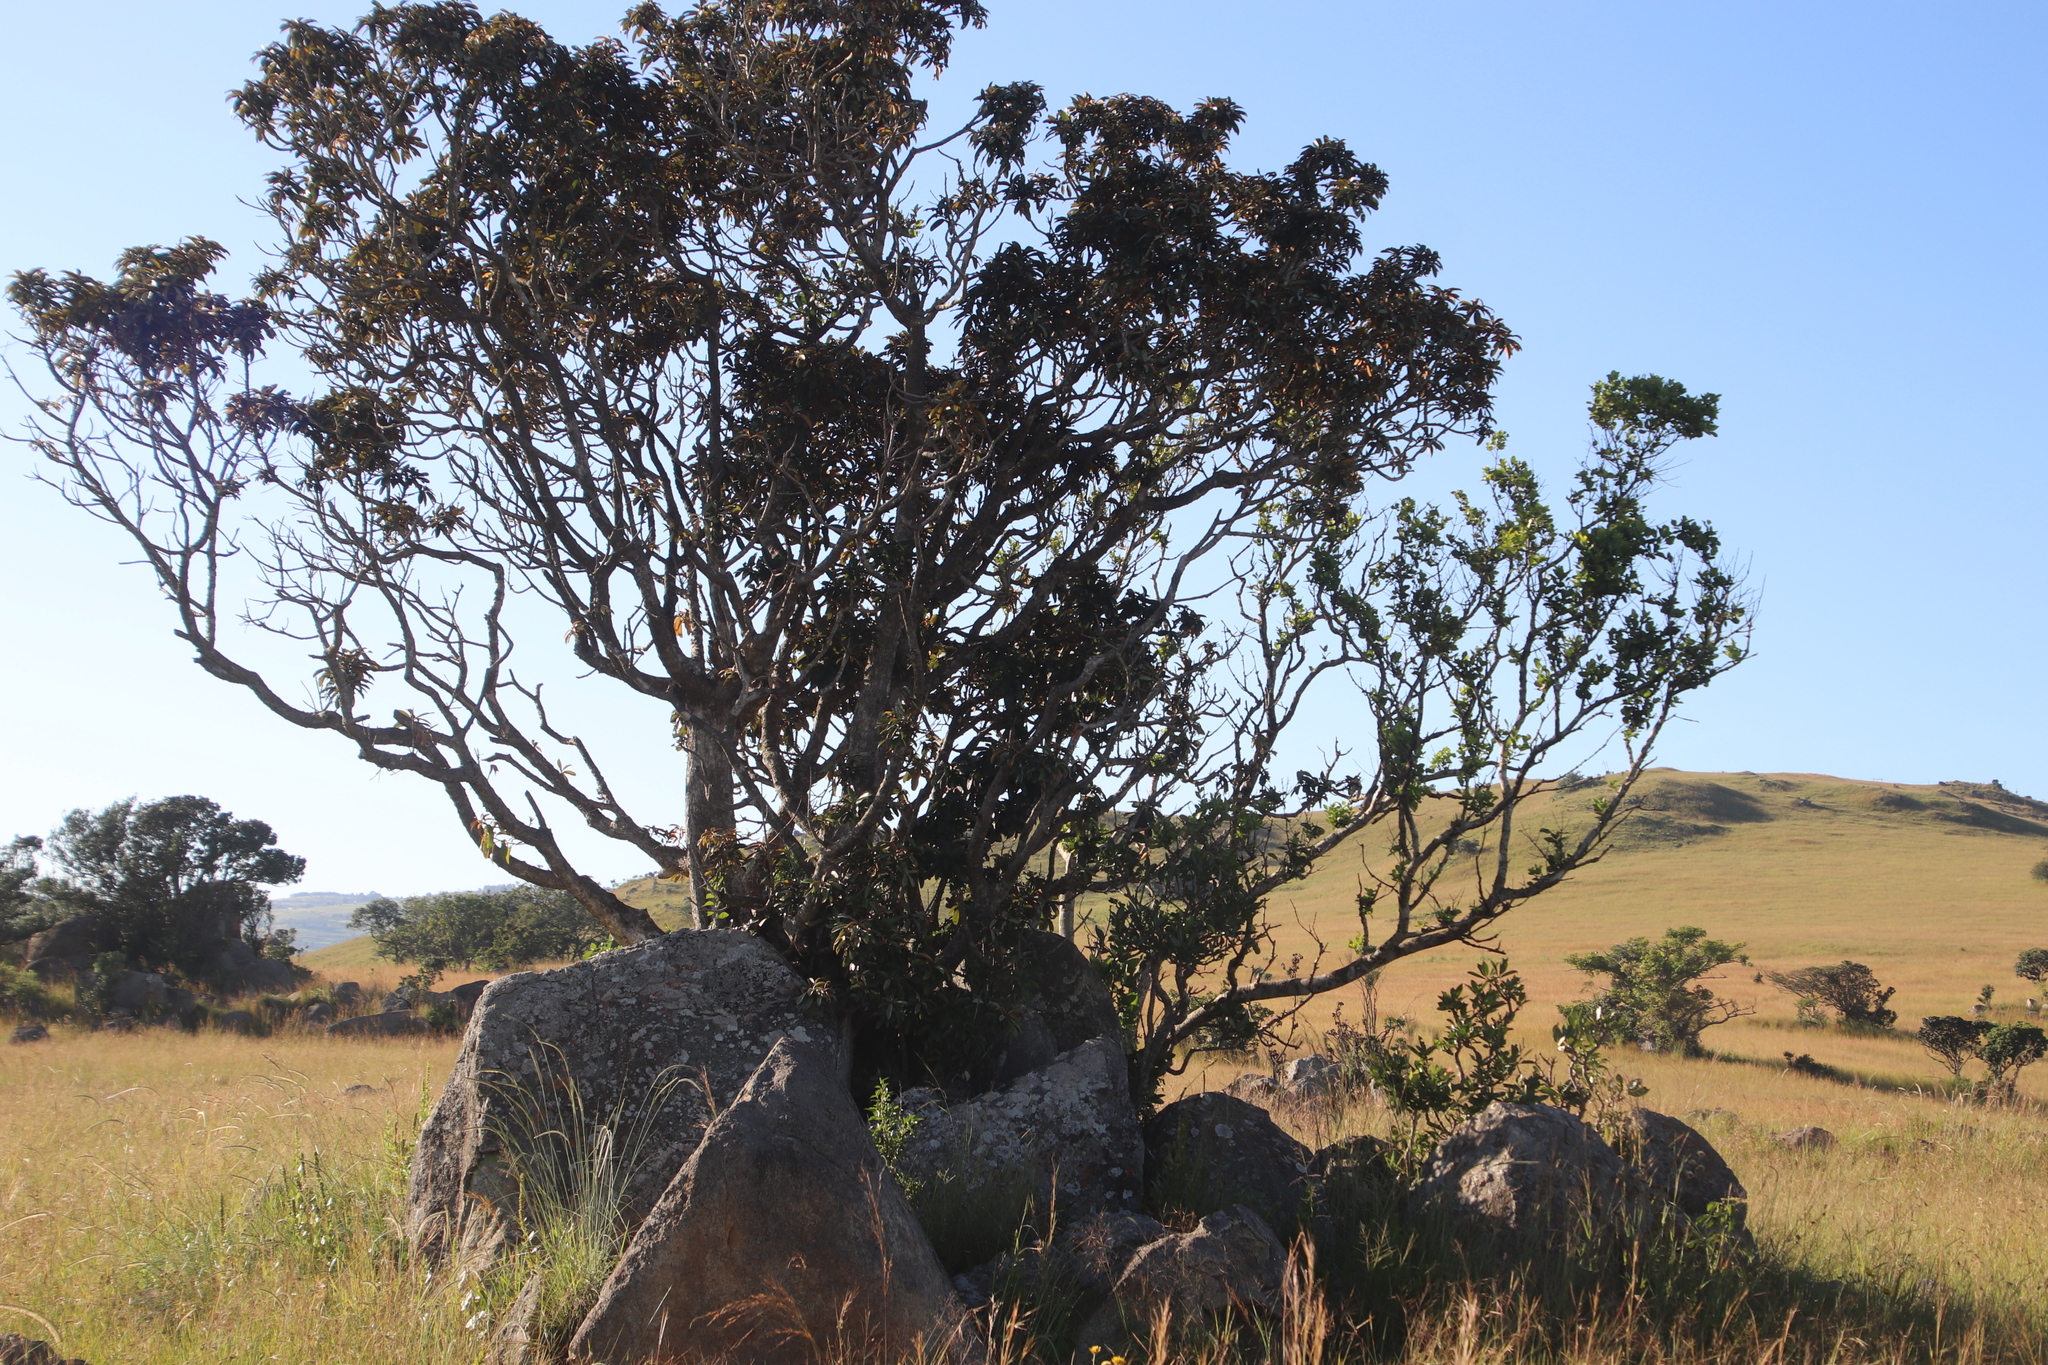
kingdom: Plantae
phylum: Tracheophyta
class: Magnoliopsida
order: Ericales
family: Sapotaceae
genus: Englerophytum
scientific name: Englerophytum magalismontanum
